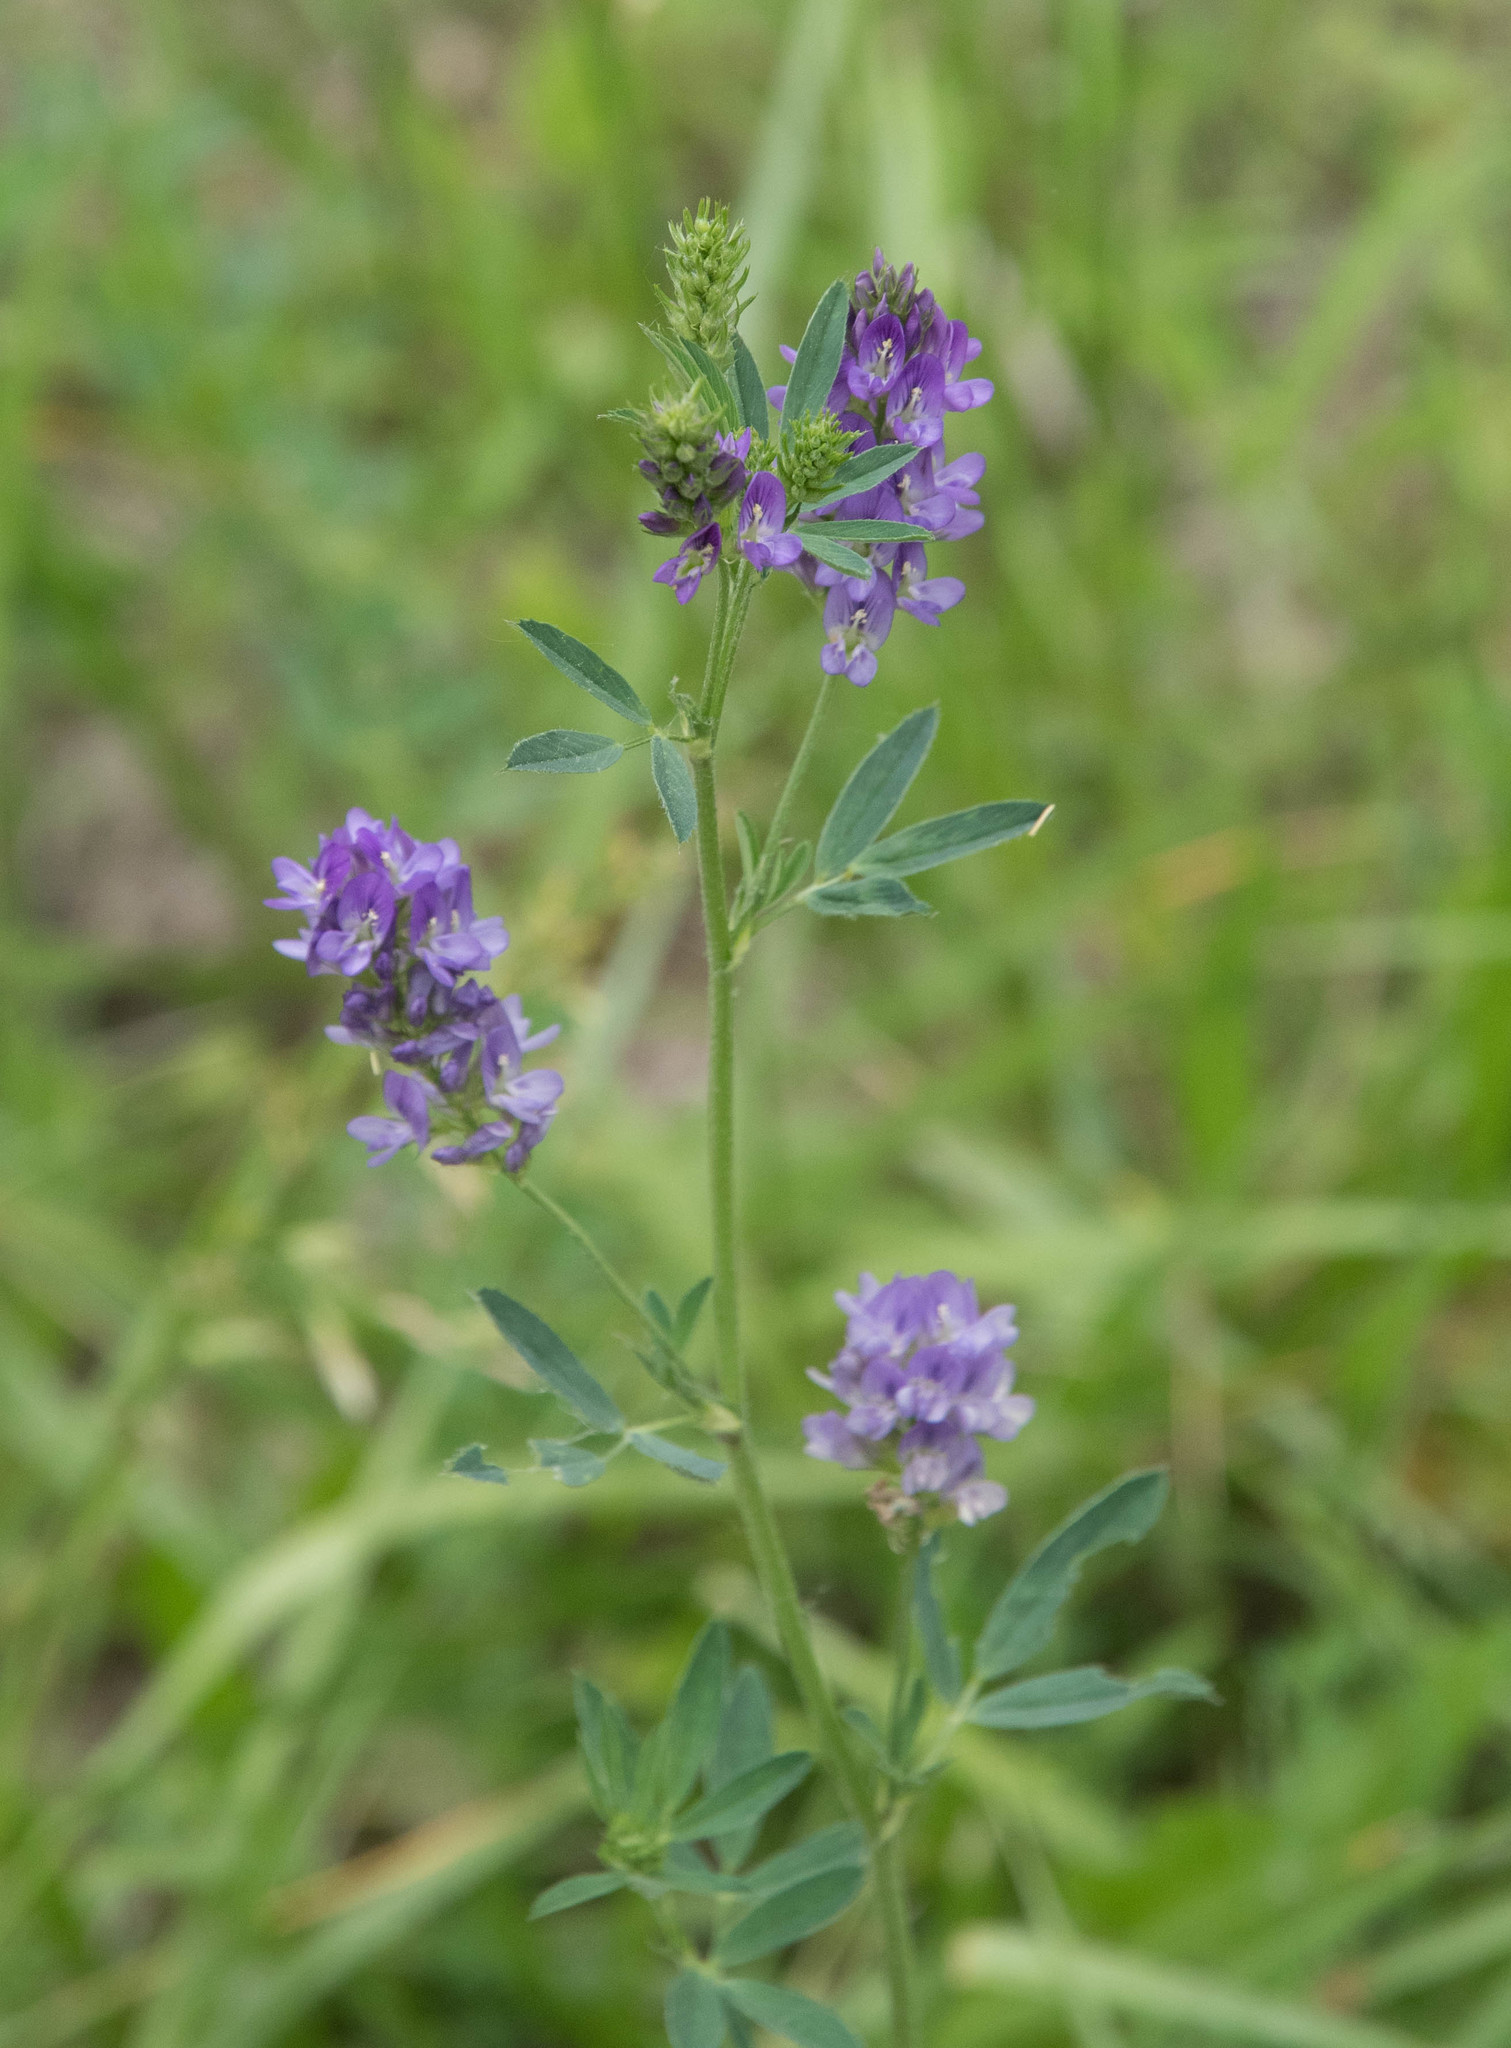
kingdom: Plantae
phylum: Tracheophyta
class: Magnoliopsida
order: Fabales
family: Fabaceae
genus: Medicago
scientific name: Medicago sativa
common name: Alfalfa
